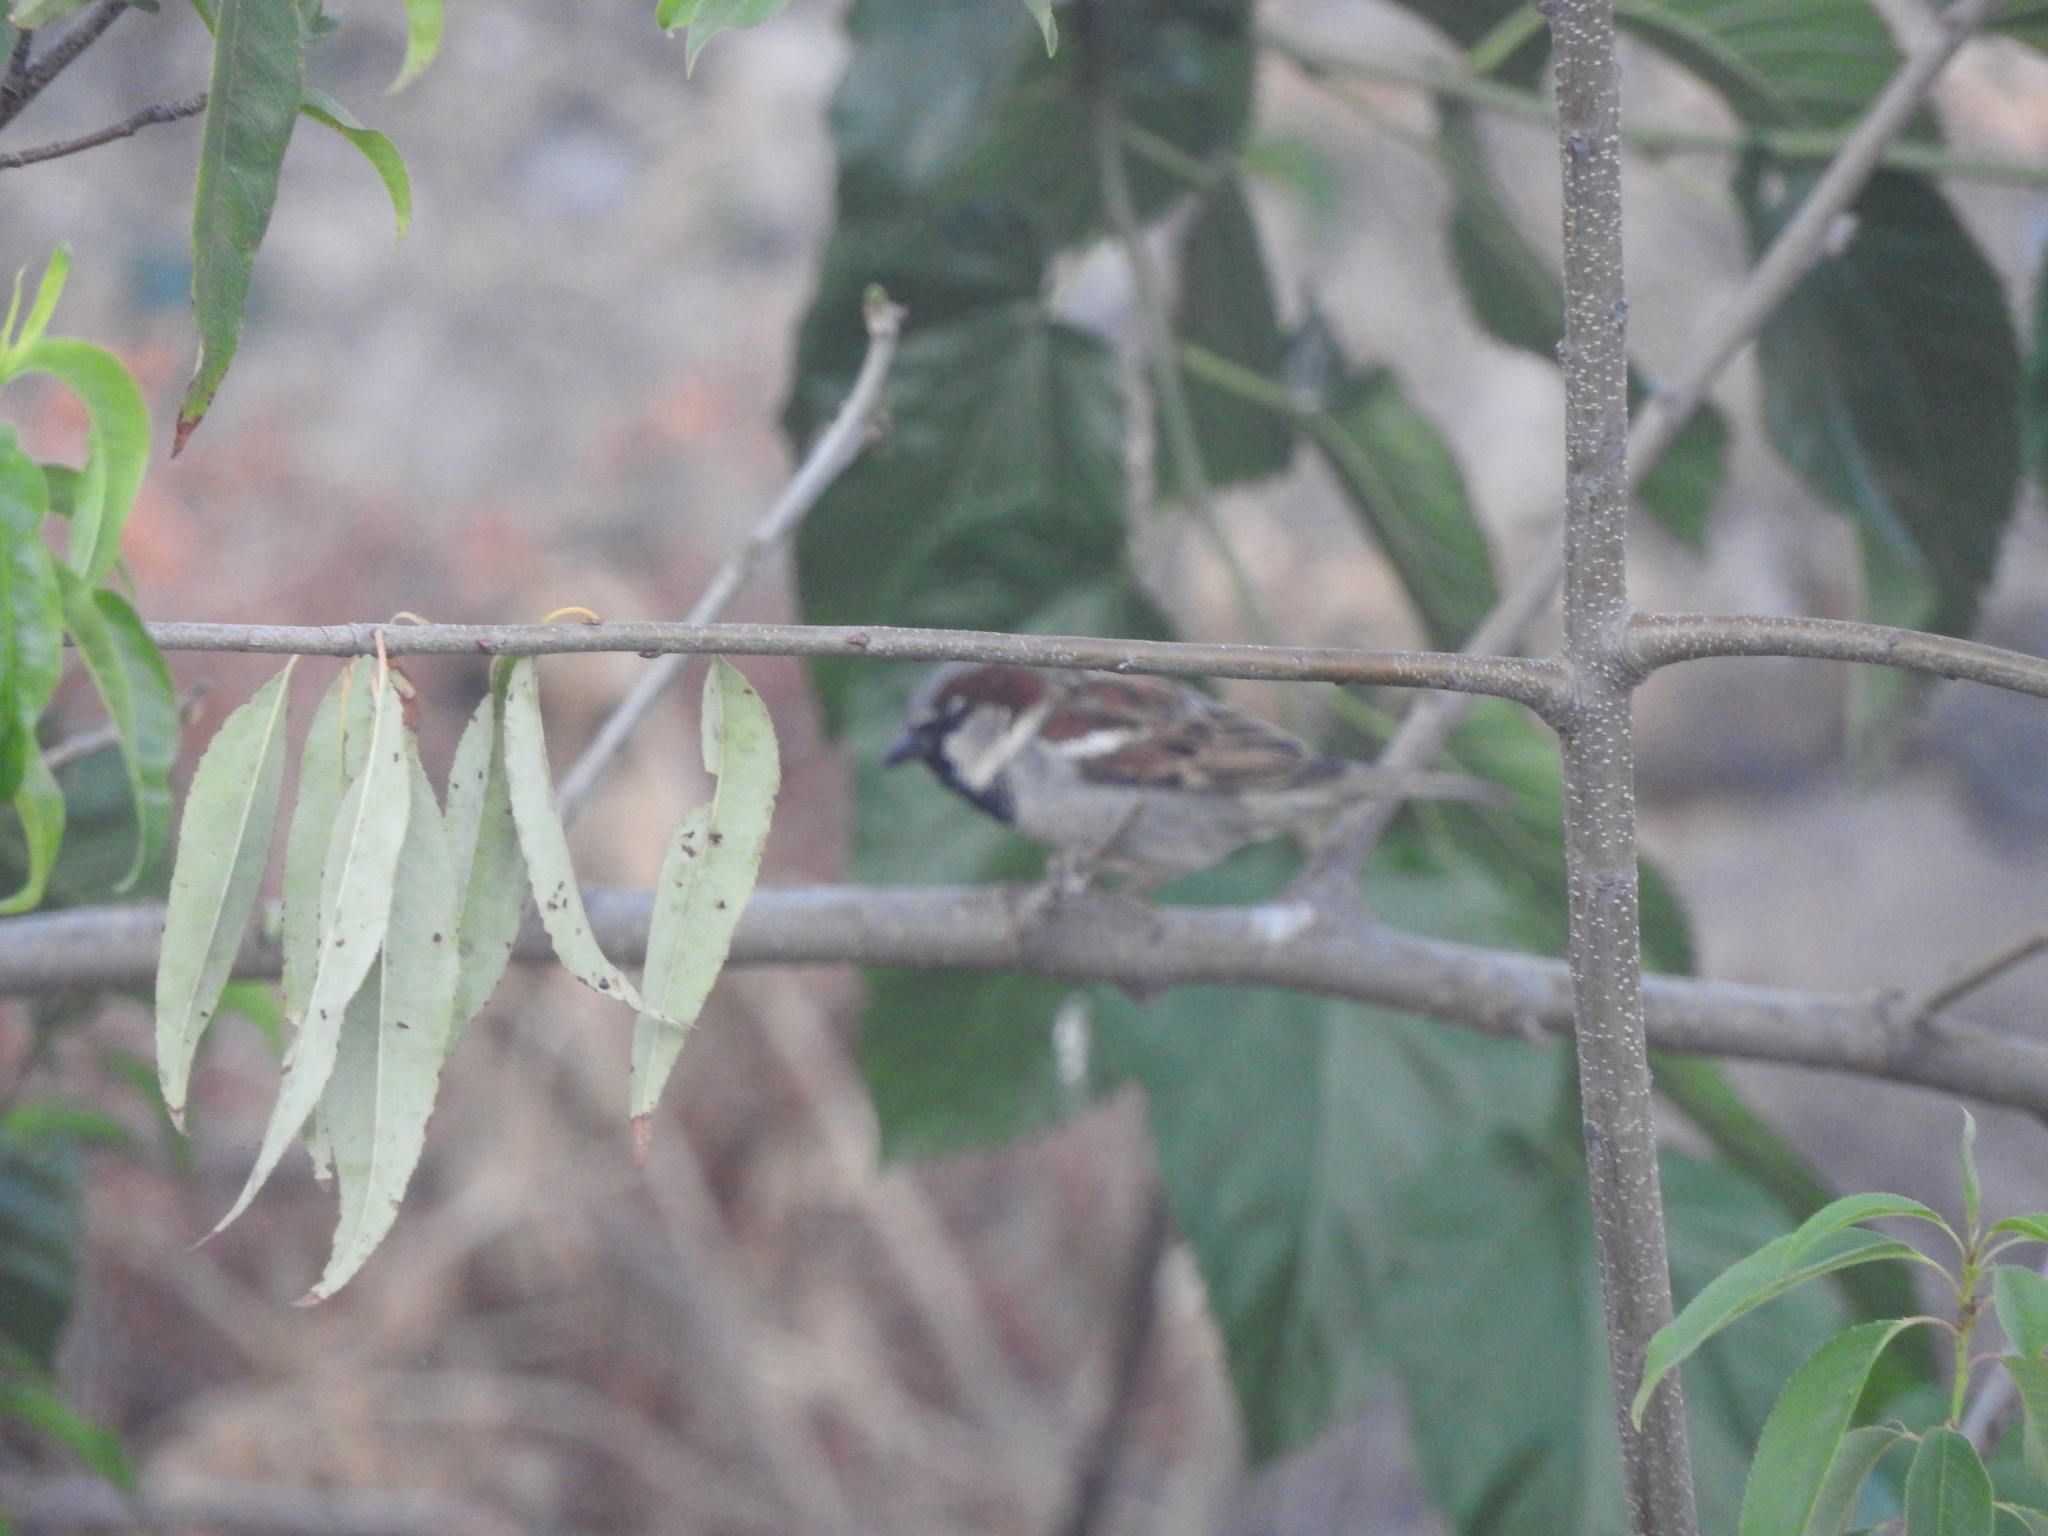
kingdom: Animalia
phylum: Chordata
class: Aves
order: Passeriformes
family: Passeridae
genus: Passer
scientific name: Passer domesticus
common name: House sparrow
